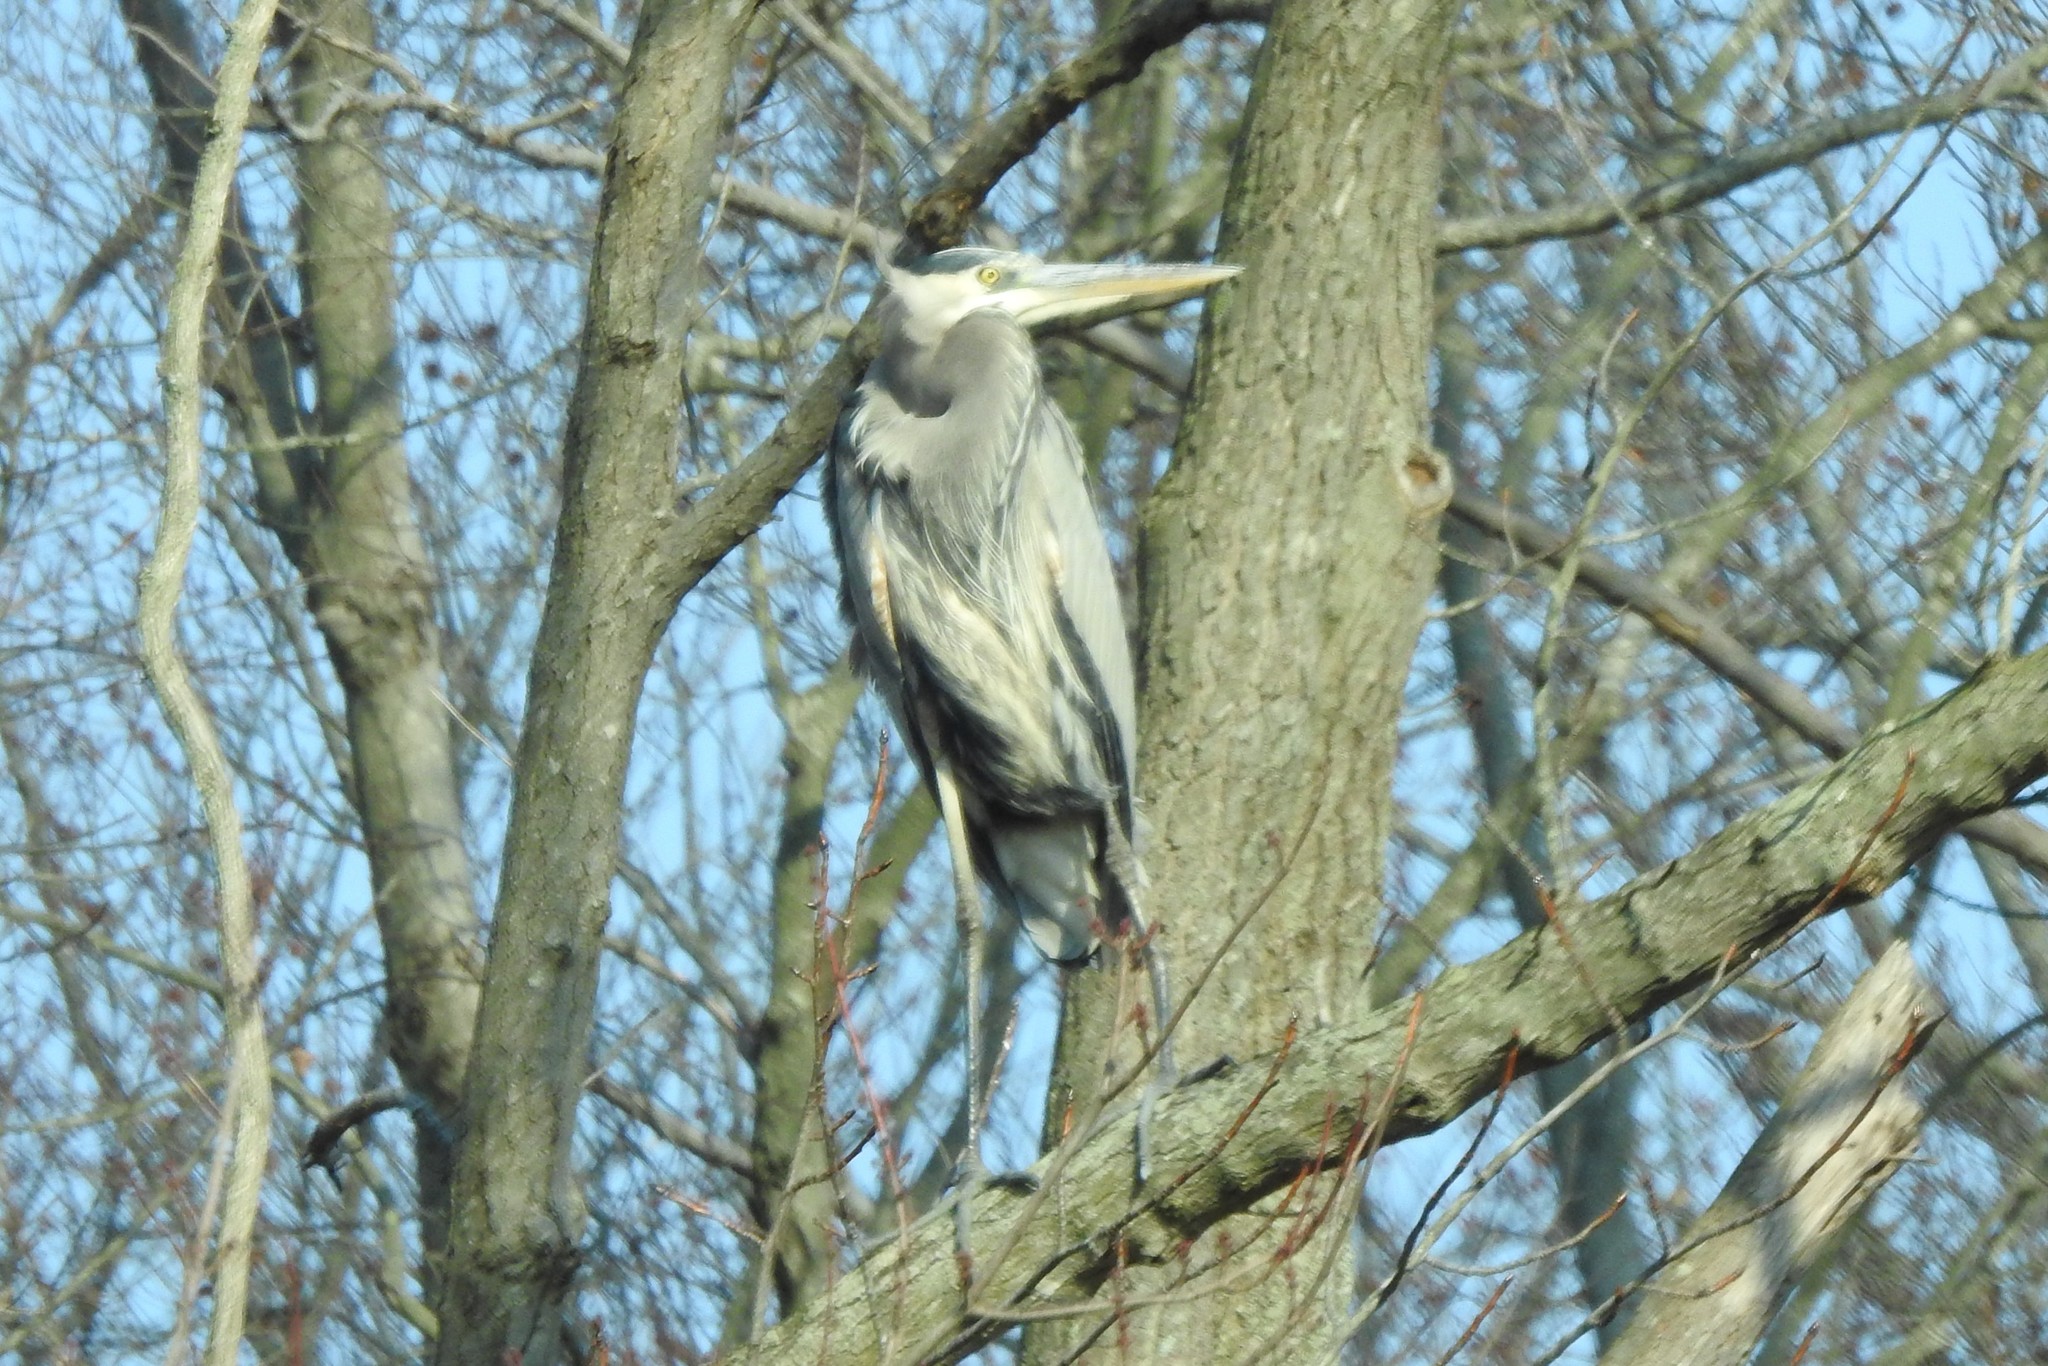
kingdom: Animalia
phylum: Chordata
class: Aves
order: Pelecaniformes
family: Ardeidae
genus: Ardea
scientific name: Ardea herodias
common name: Great blue heron
